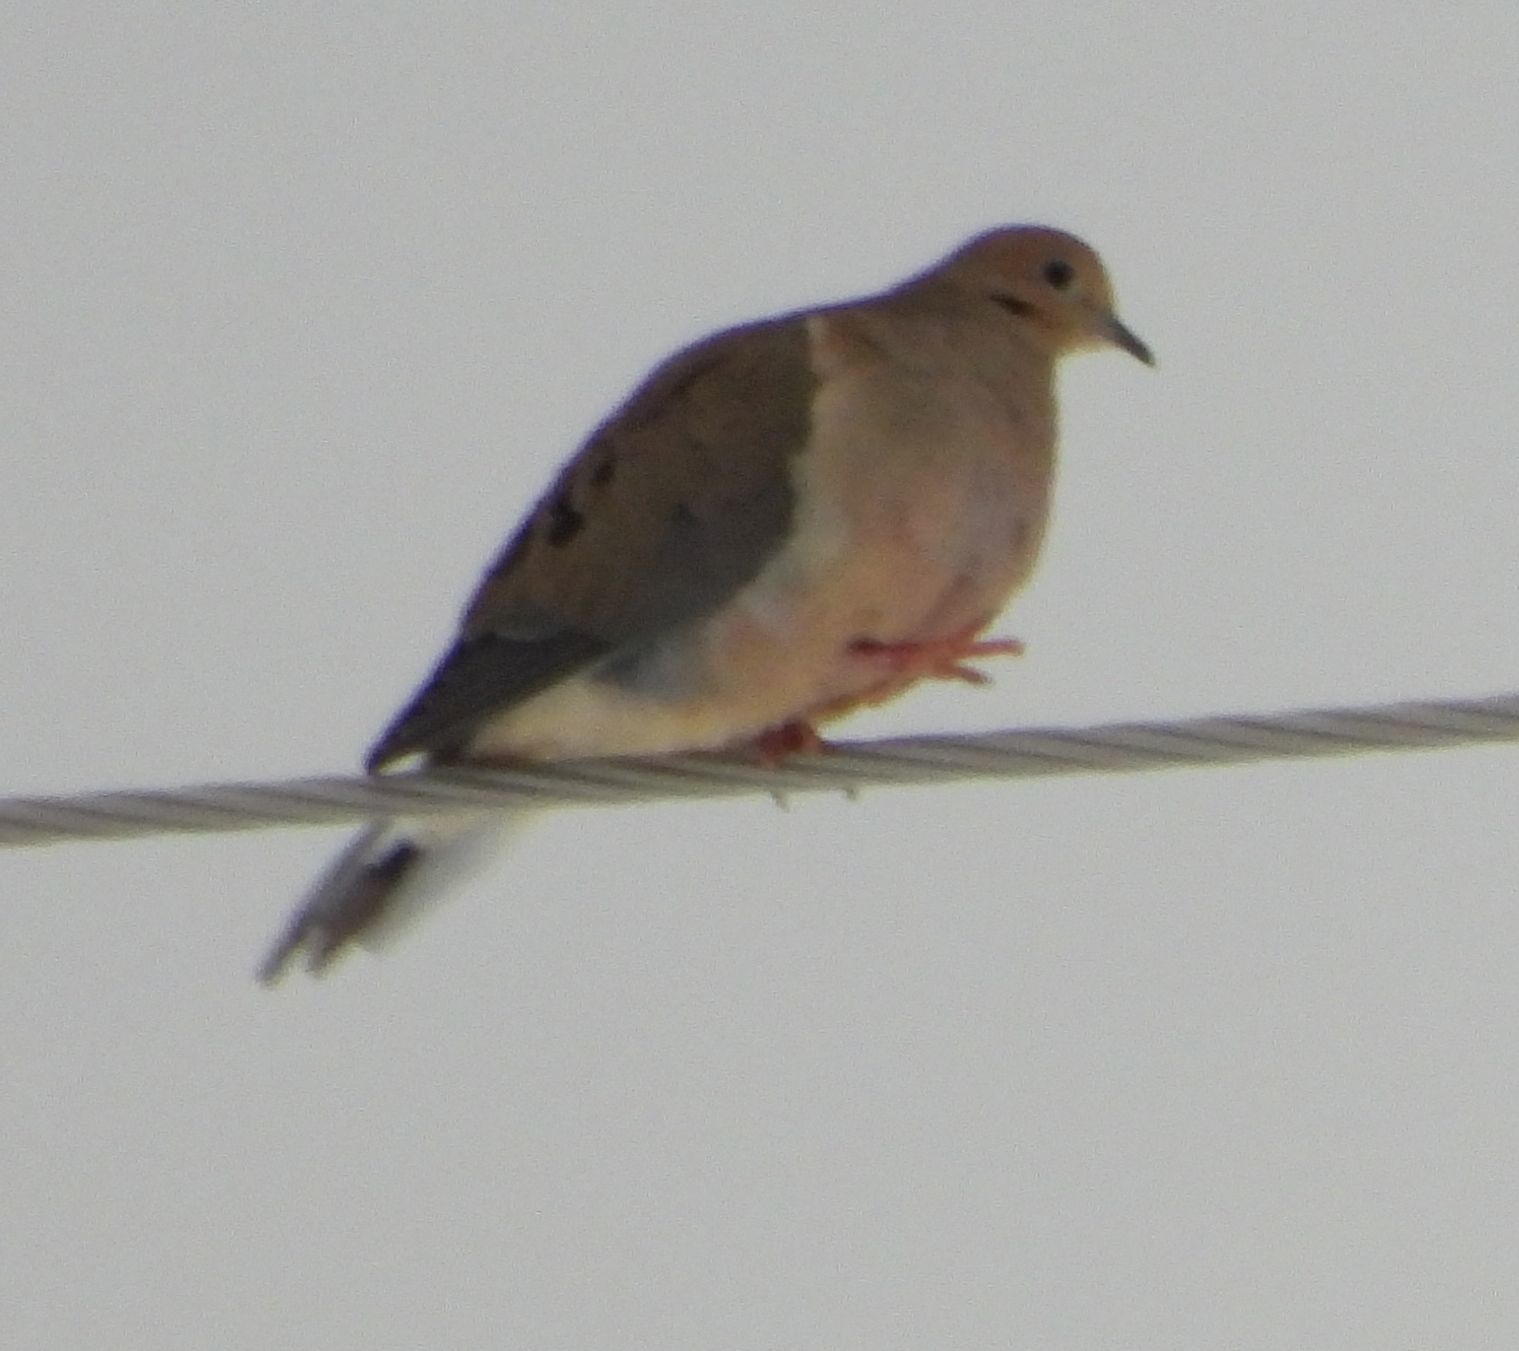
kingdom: Animalia
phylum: Chordata
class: Aves
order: Columbiformes
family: Columbidae
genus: Zenaida
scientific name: Zenaida macroura
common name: Mourning dove
